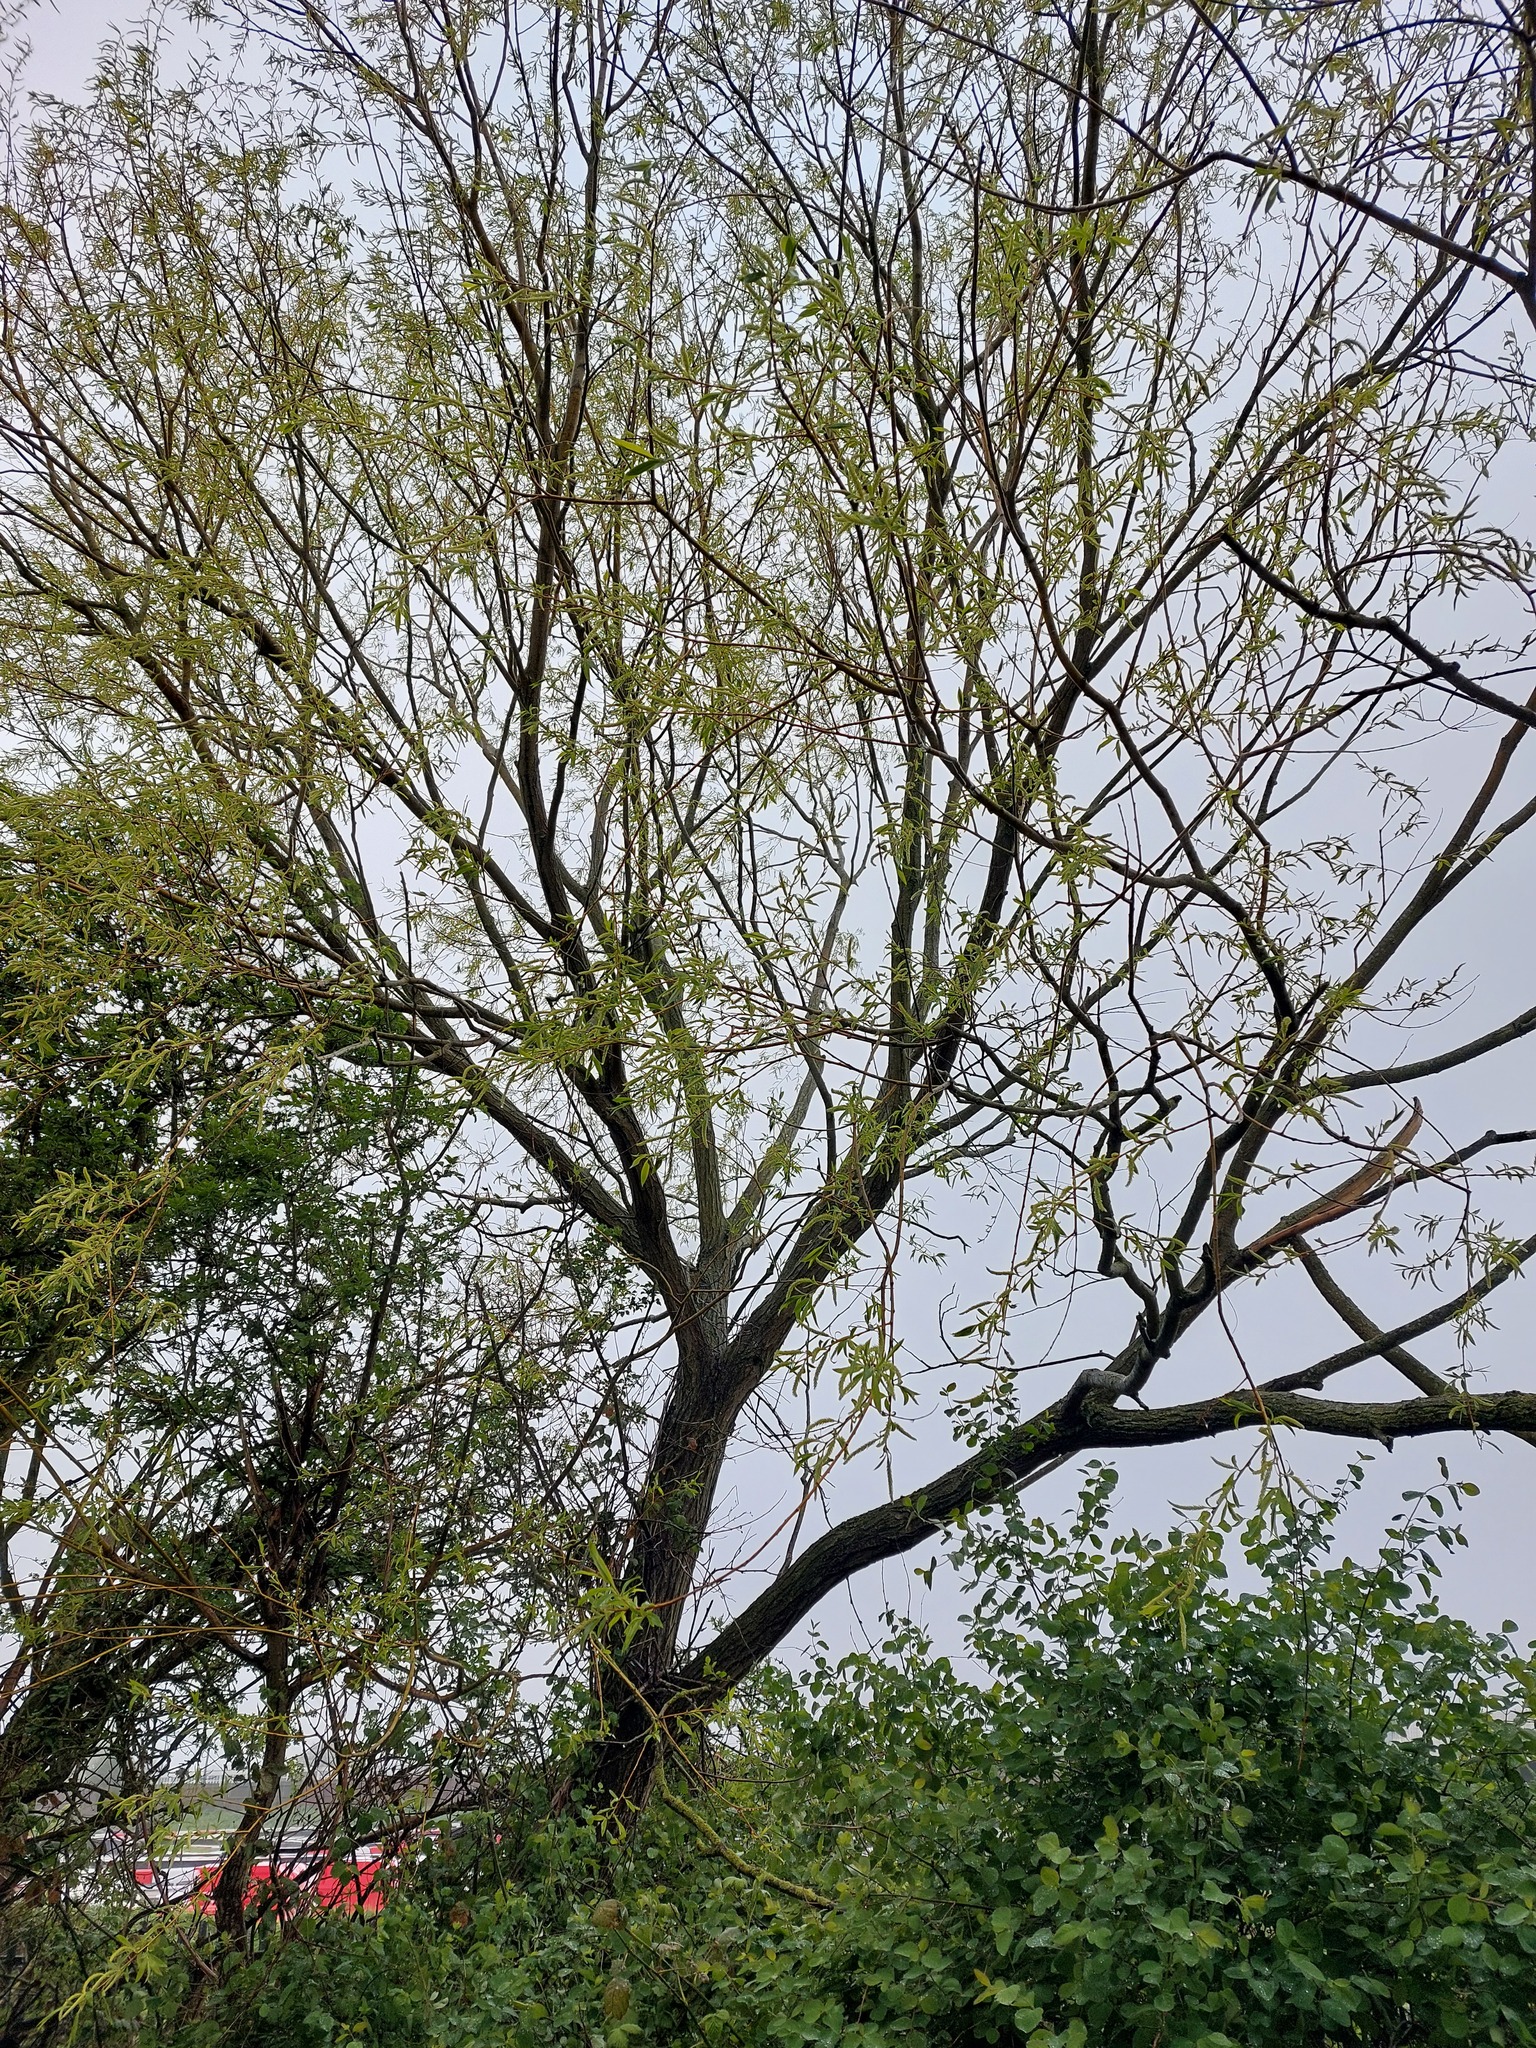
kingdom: Plantae
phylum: Tracheophyta
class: Magnoliopsida
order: Malpighiales
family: Salicaceae
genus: Salix
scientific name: Salix fragilis
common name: Crack willow
